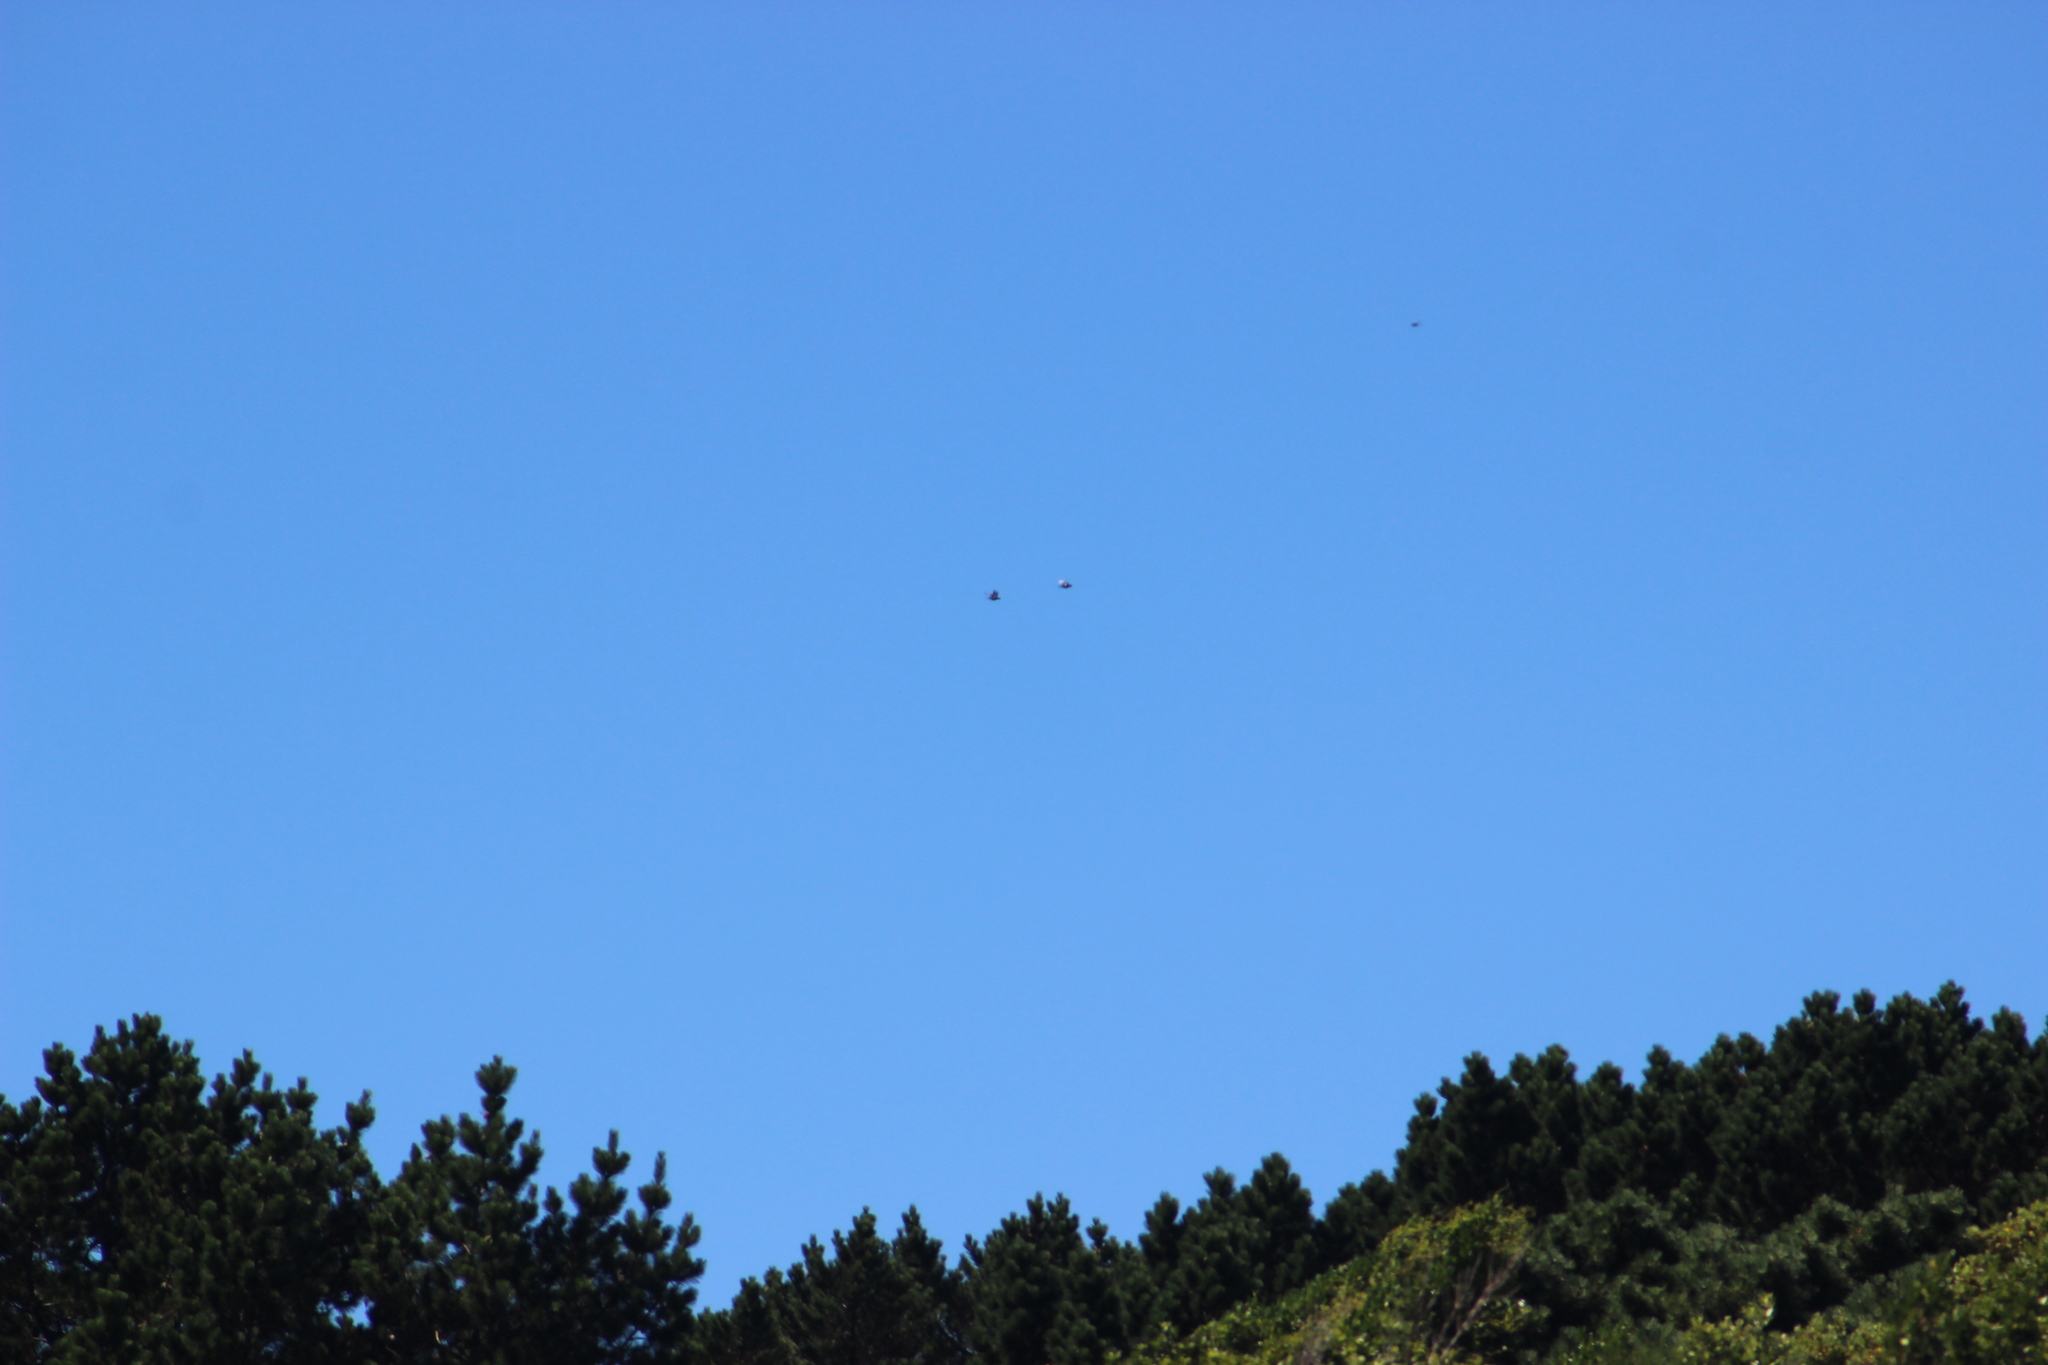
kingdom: Animalia
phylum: Chordata
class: Aves
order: Columbiformes
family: Columbidae
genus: Columba
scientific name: Columba livia
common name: Rock pigeon
